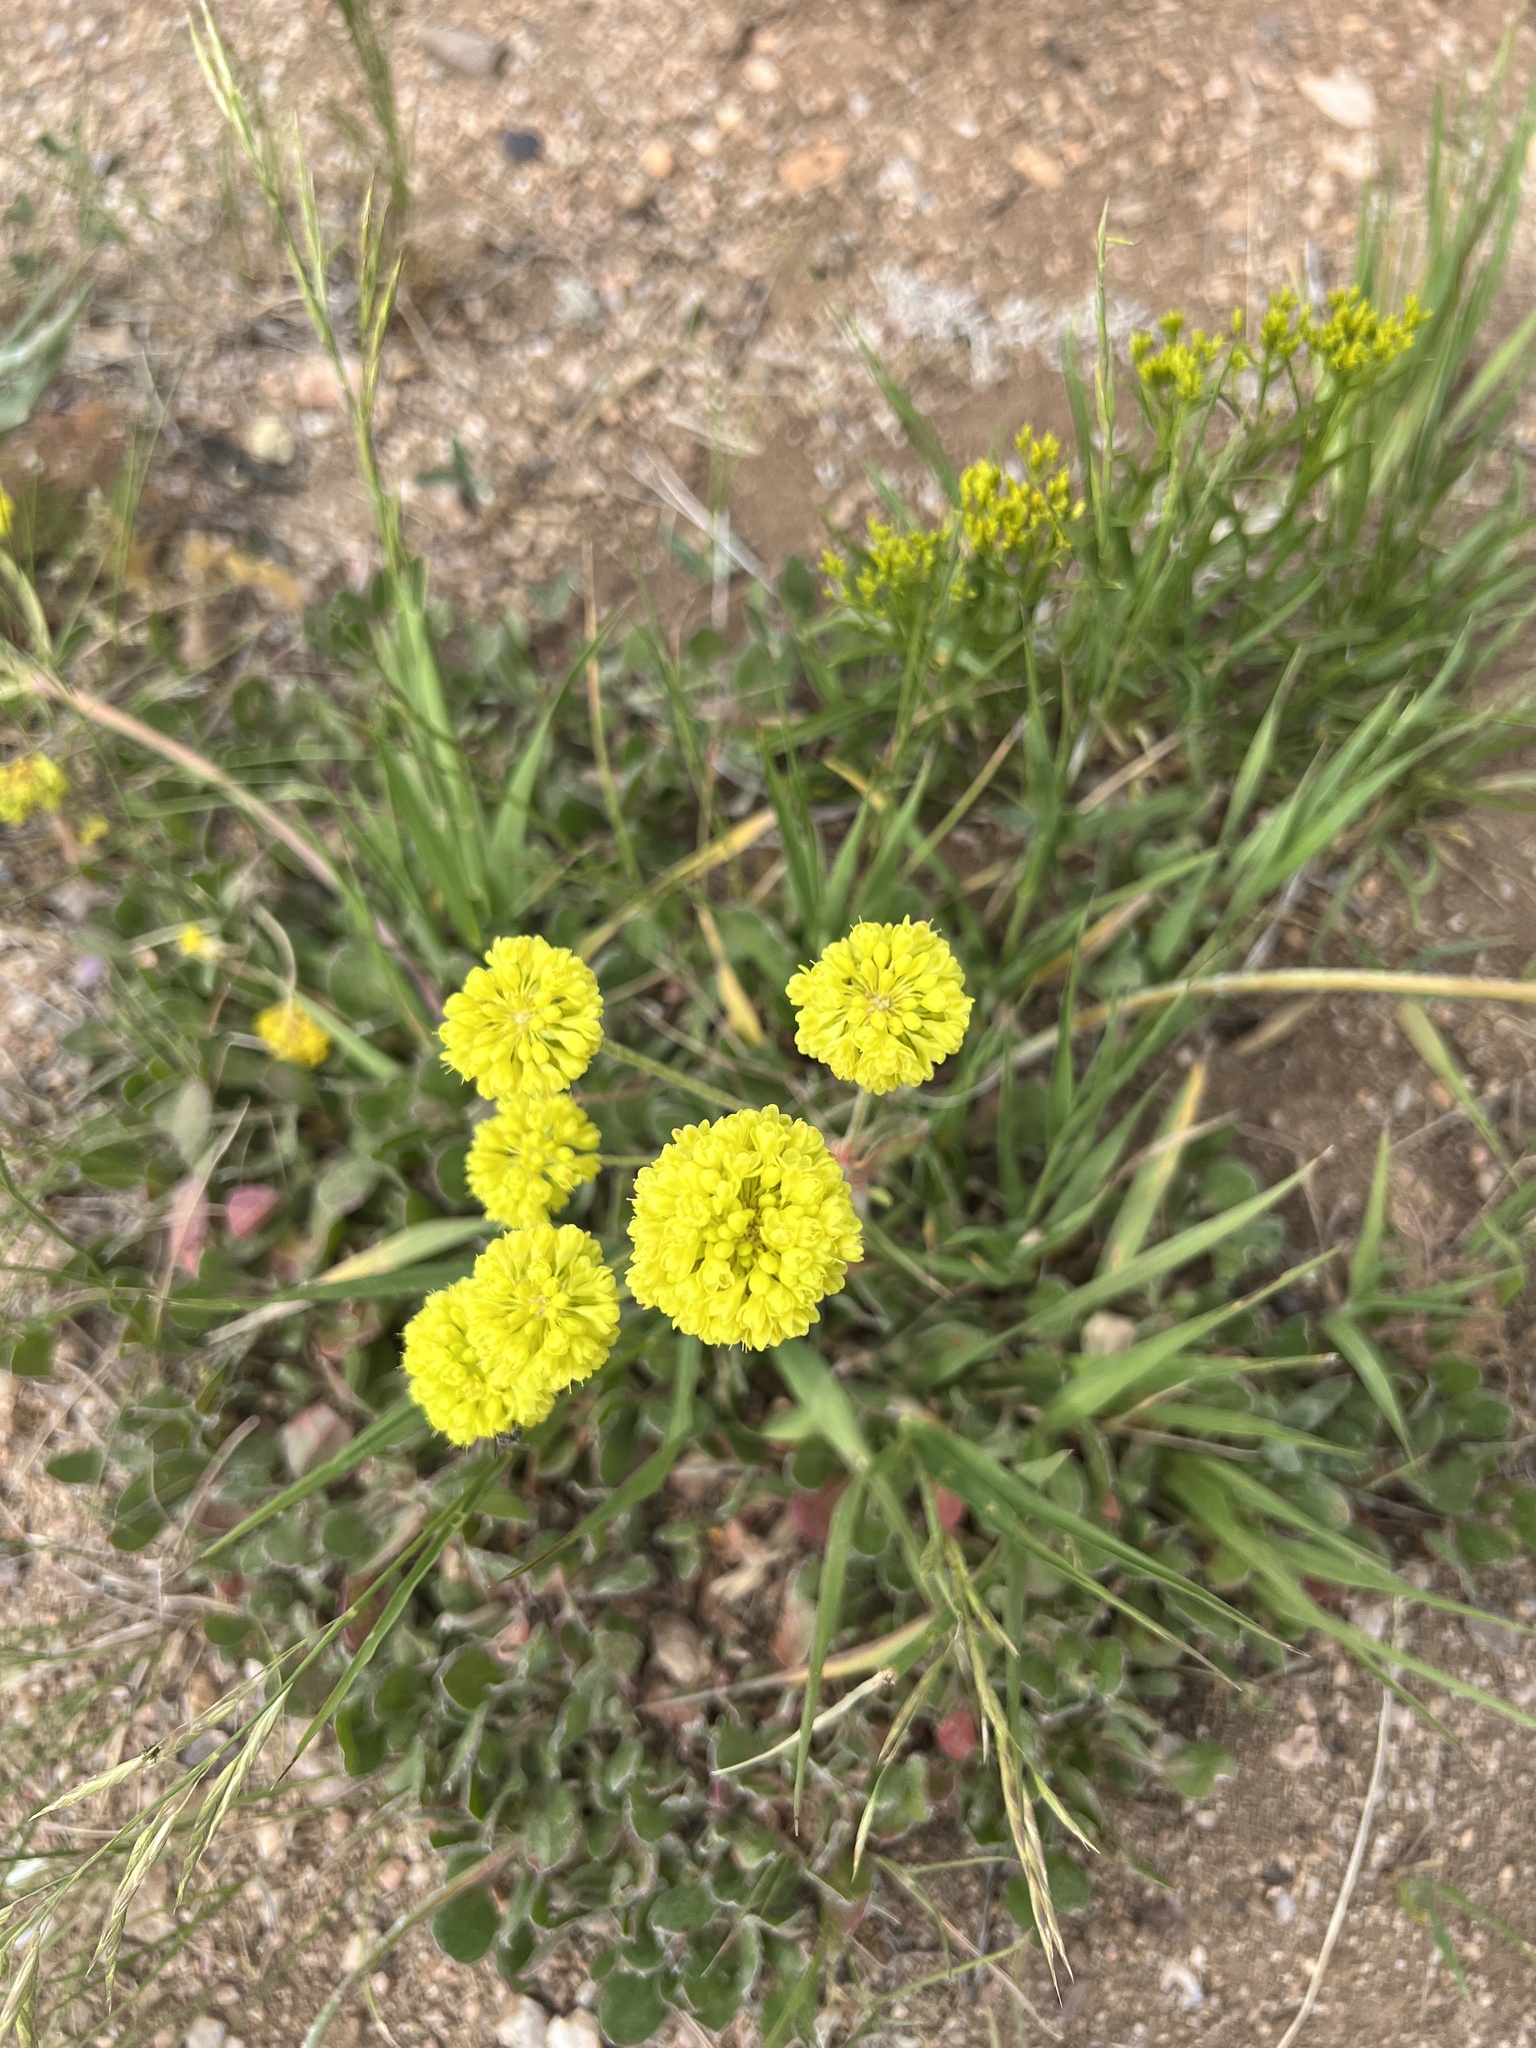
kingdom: Plantae
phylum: Tracheophyta
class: Magnoliopsida
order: Caryophyllales
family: Polygonaceae
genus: Eriogonum
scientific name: Eriogonum umbellatum
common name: Sulfur-buckwheat
